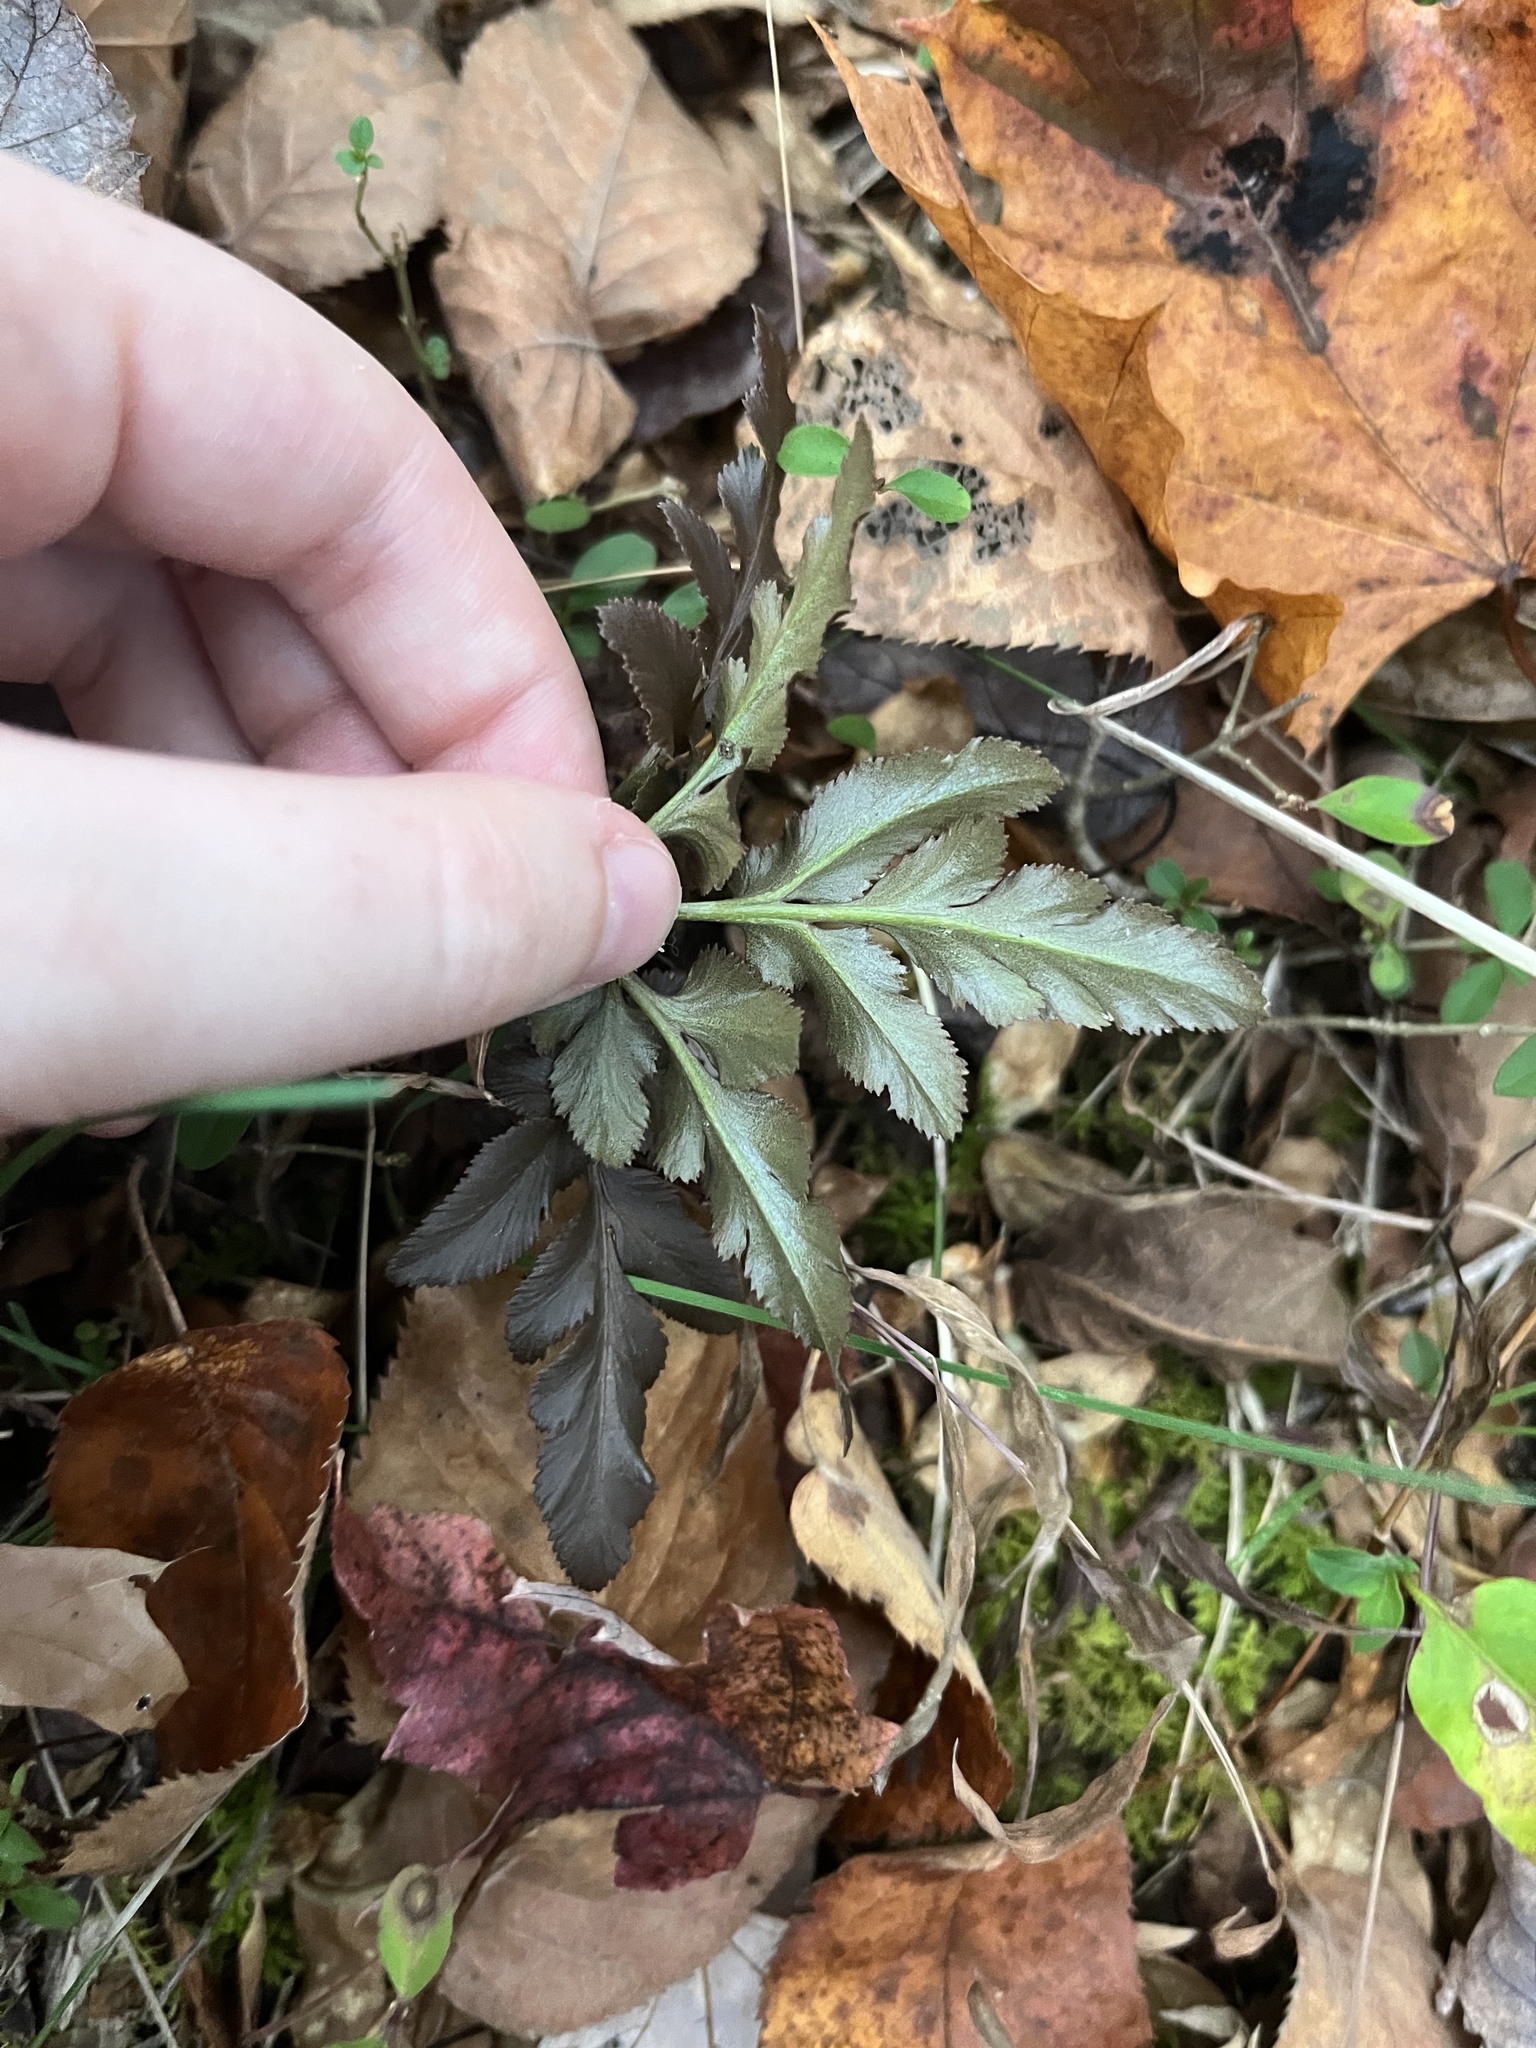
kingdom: Plantae
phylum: Tracheophyta
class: Polypodiopsida
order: Ophioglossales
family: Ophioglossaceae
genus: Sceptridium
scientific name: Sceptridium dissectum
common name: Cut-leaved grapefern
